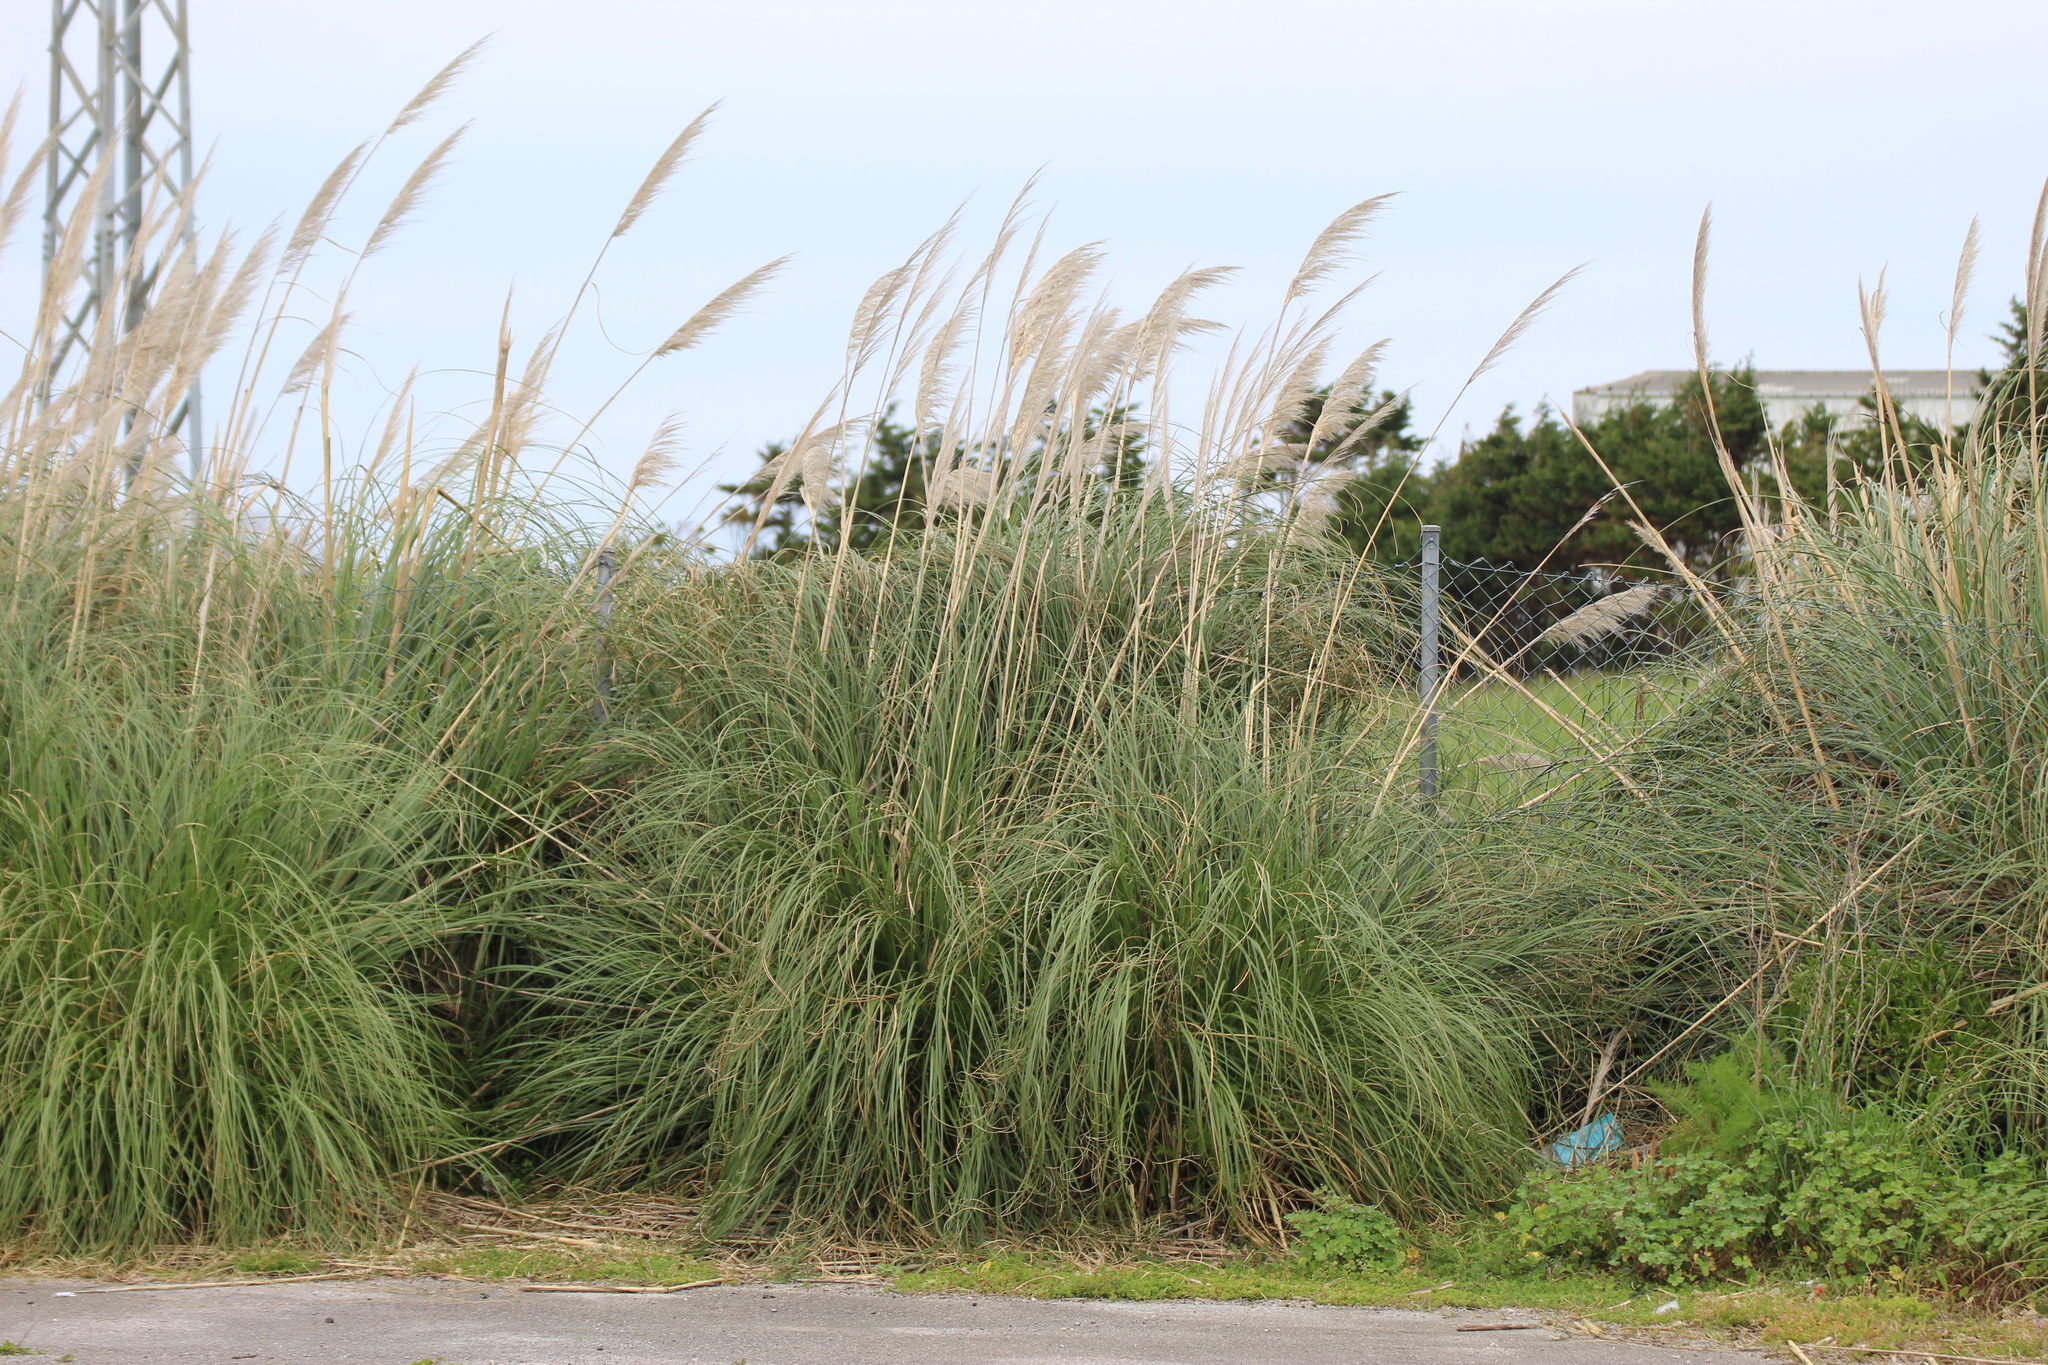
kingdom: Plantae
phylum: Tracheophyta
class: Liliopsida
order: Poales
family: Poaceae
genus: Cortaderia
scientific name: Cortaderia selloana
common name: Uruguayan pampas grass
